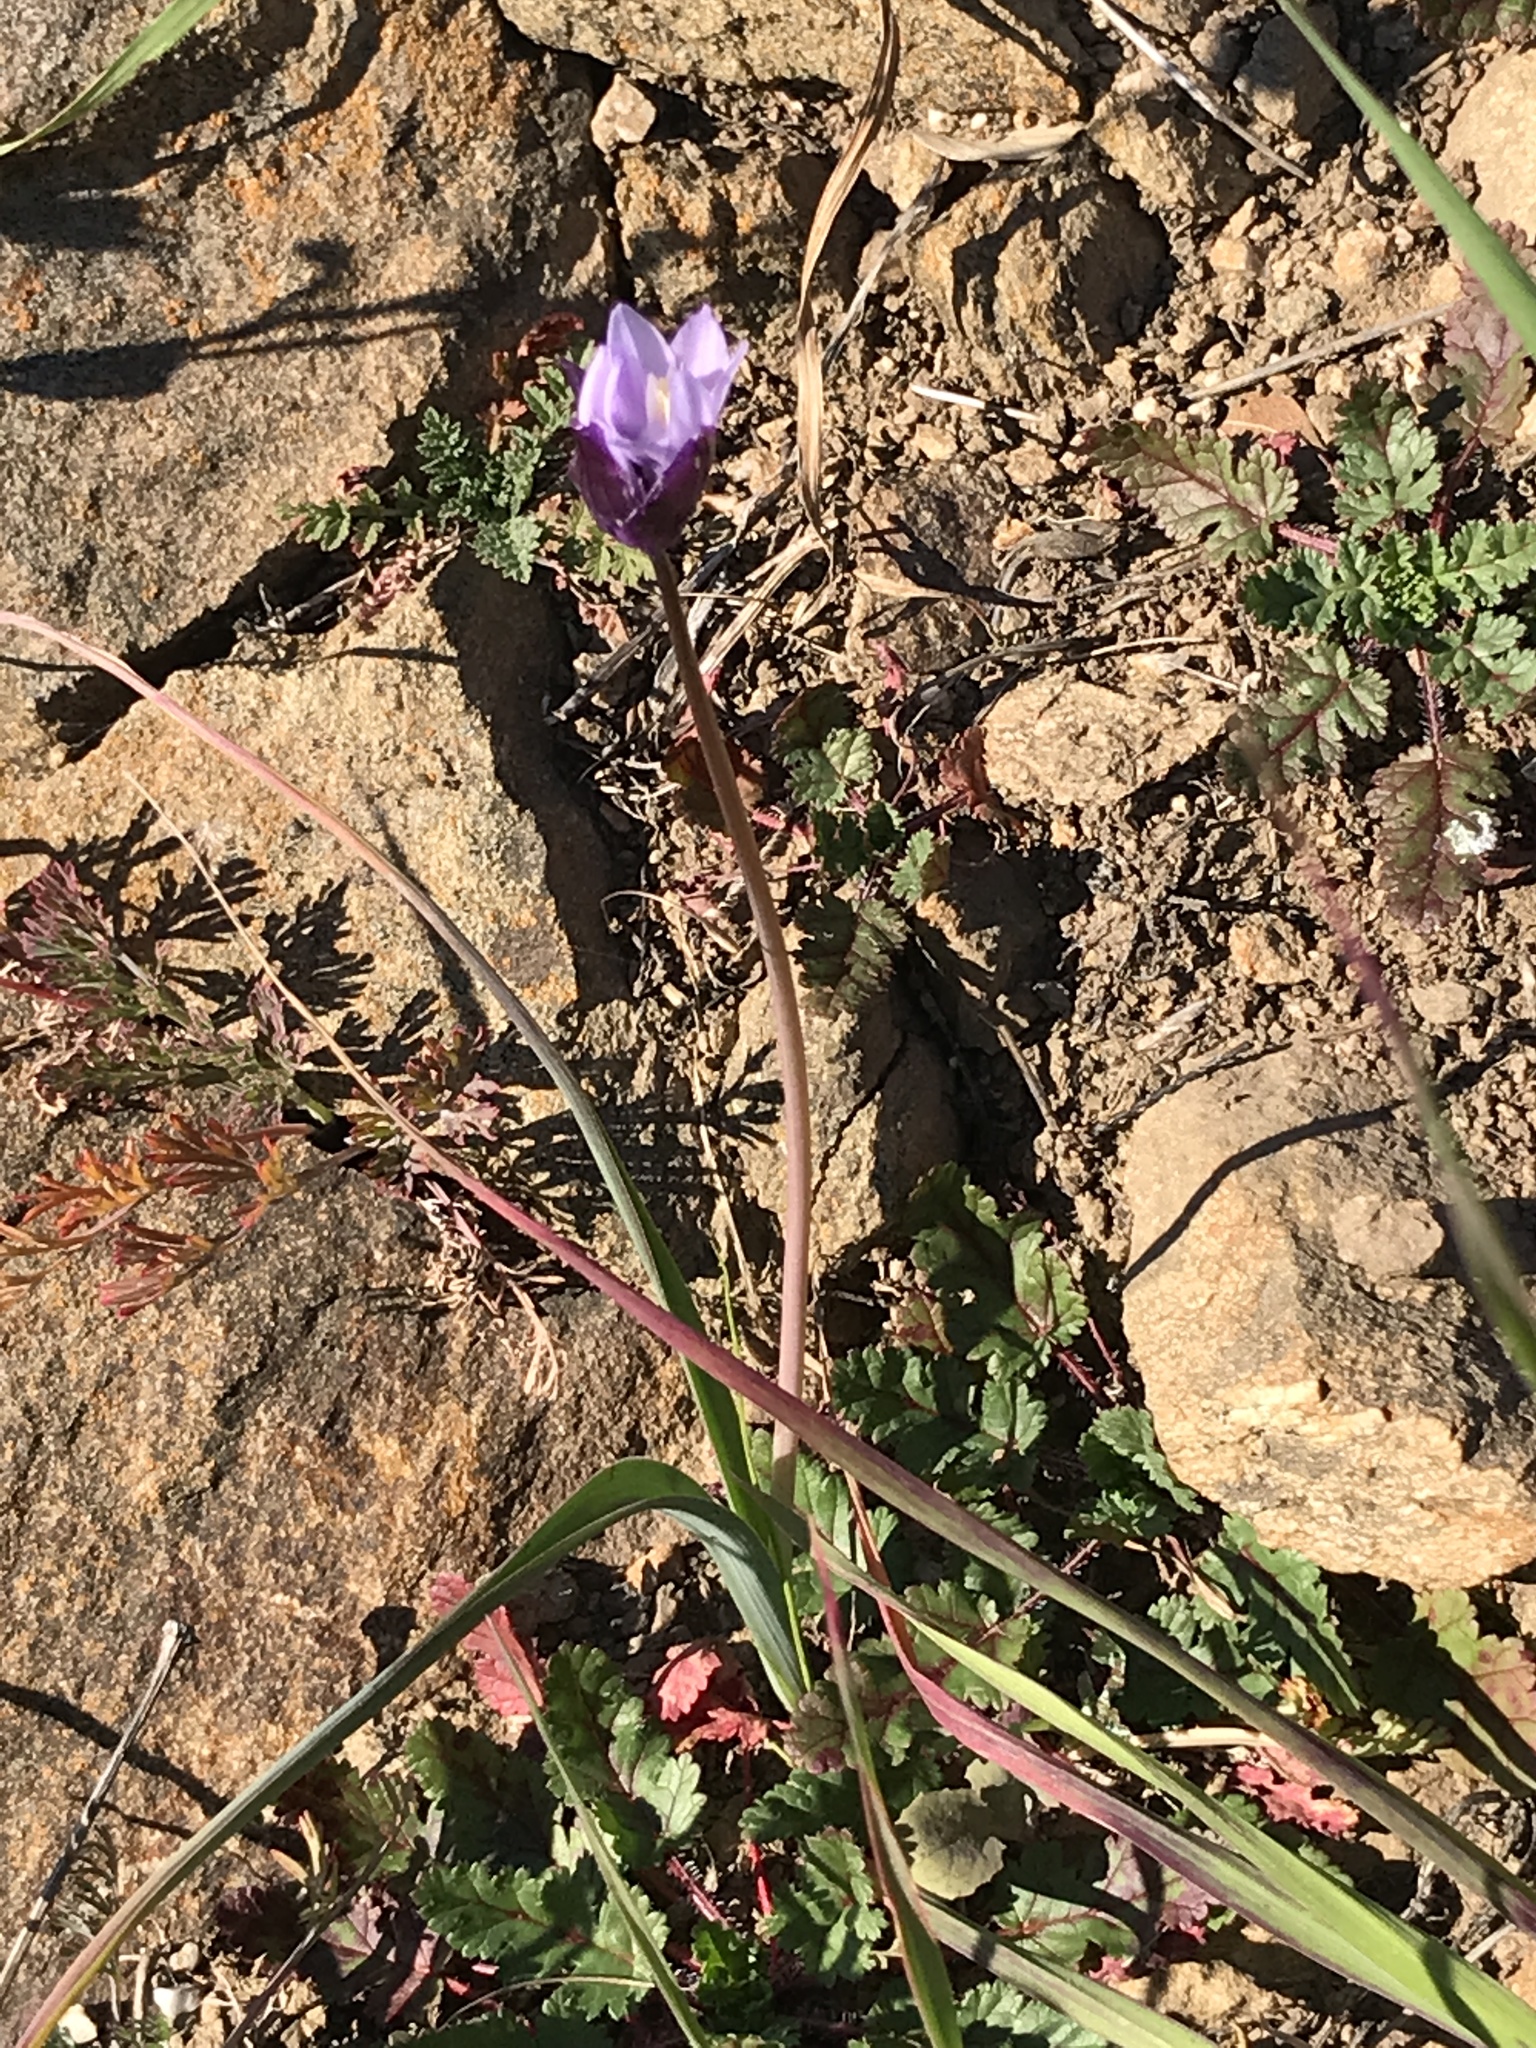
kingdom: Plantae
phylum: Tracheophyta
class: Liliopsida
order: Asparagales
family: Asparagaceae
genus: Dipterostemon
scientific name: Dipterostemon capitatus
